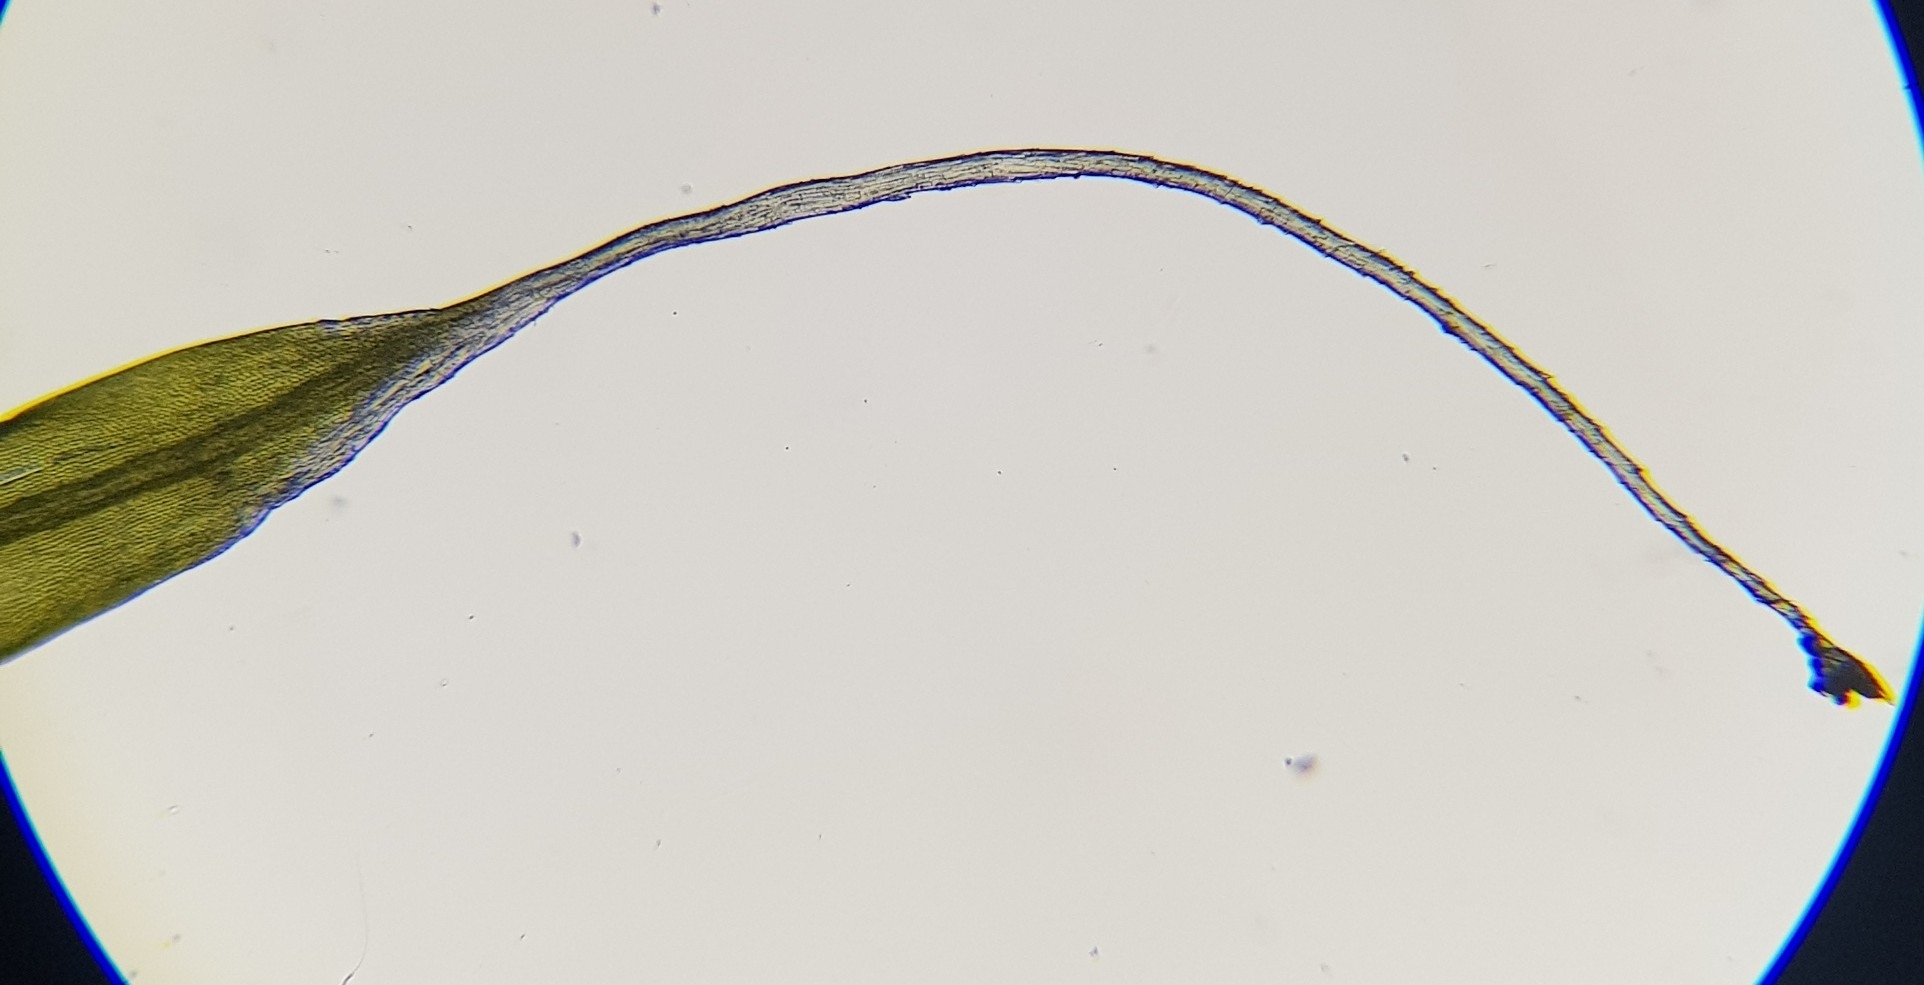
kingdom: Plantae
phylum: Bryophyta
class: Bryopsida
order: Grimmiales
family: Grimmiaceae
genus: Grimmia
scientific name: Grimmia pulvinata
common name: Grey-cushioned grimmia
